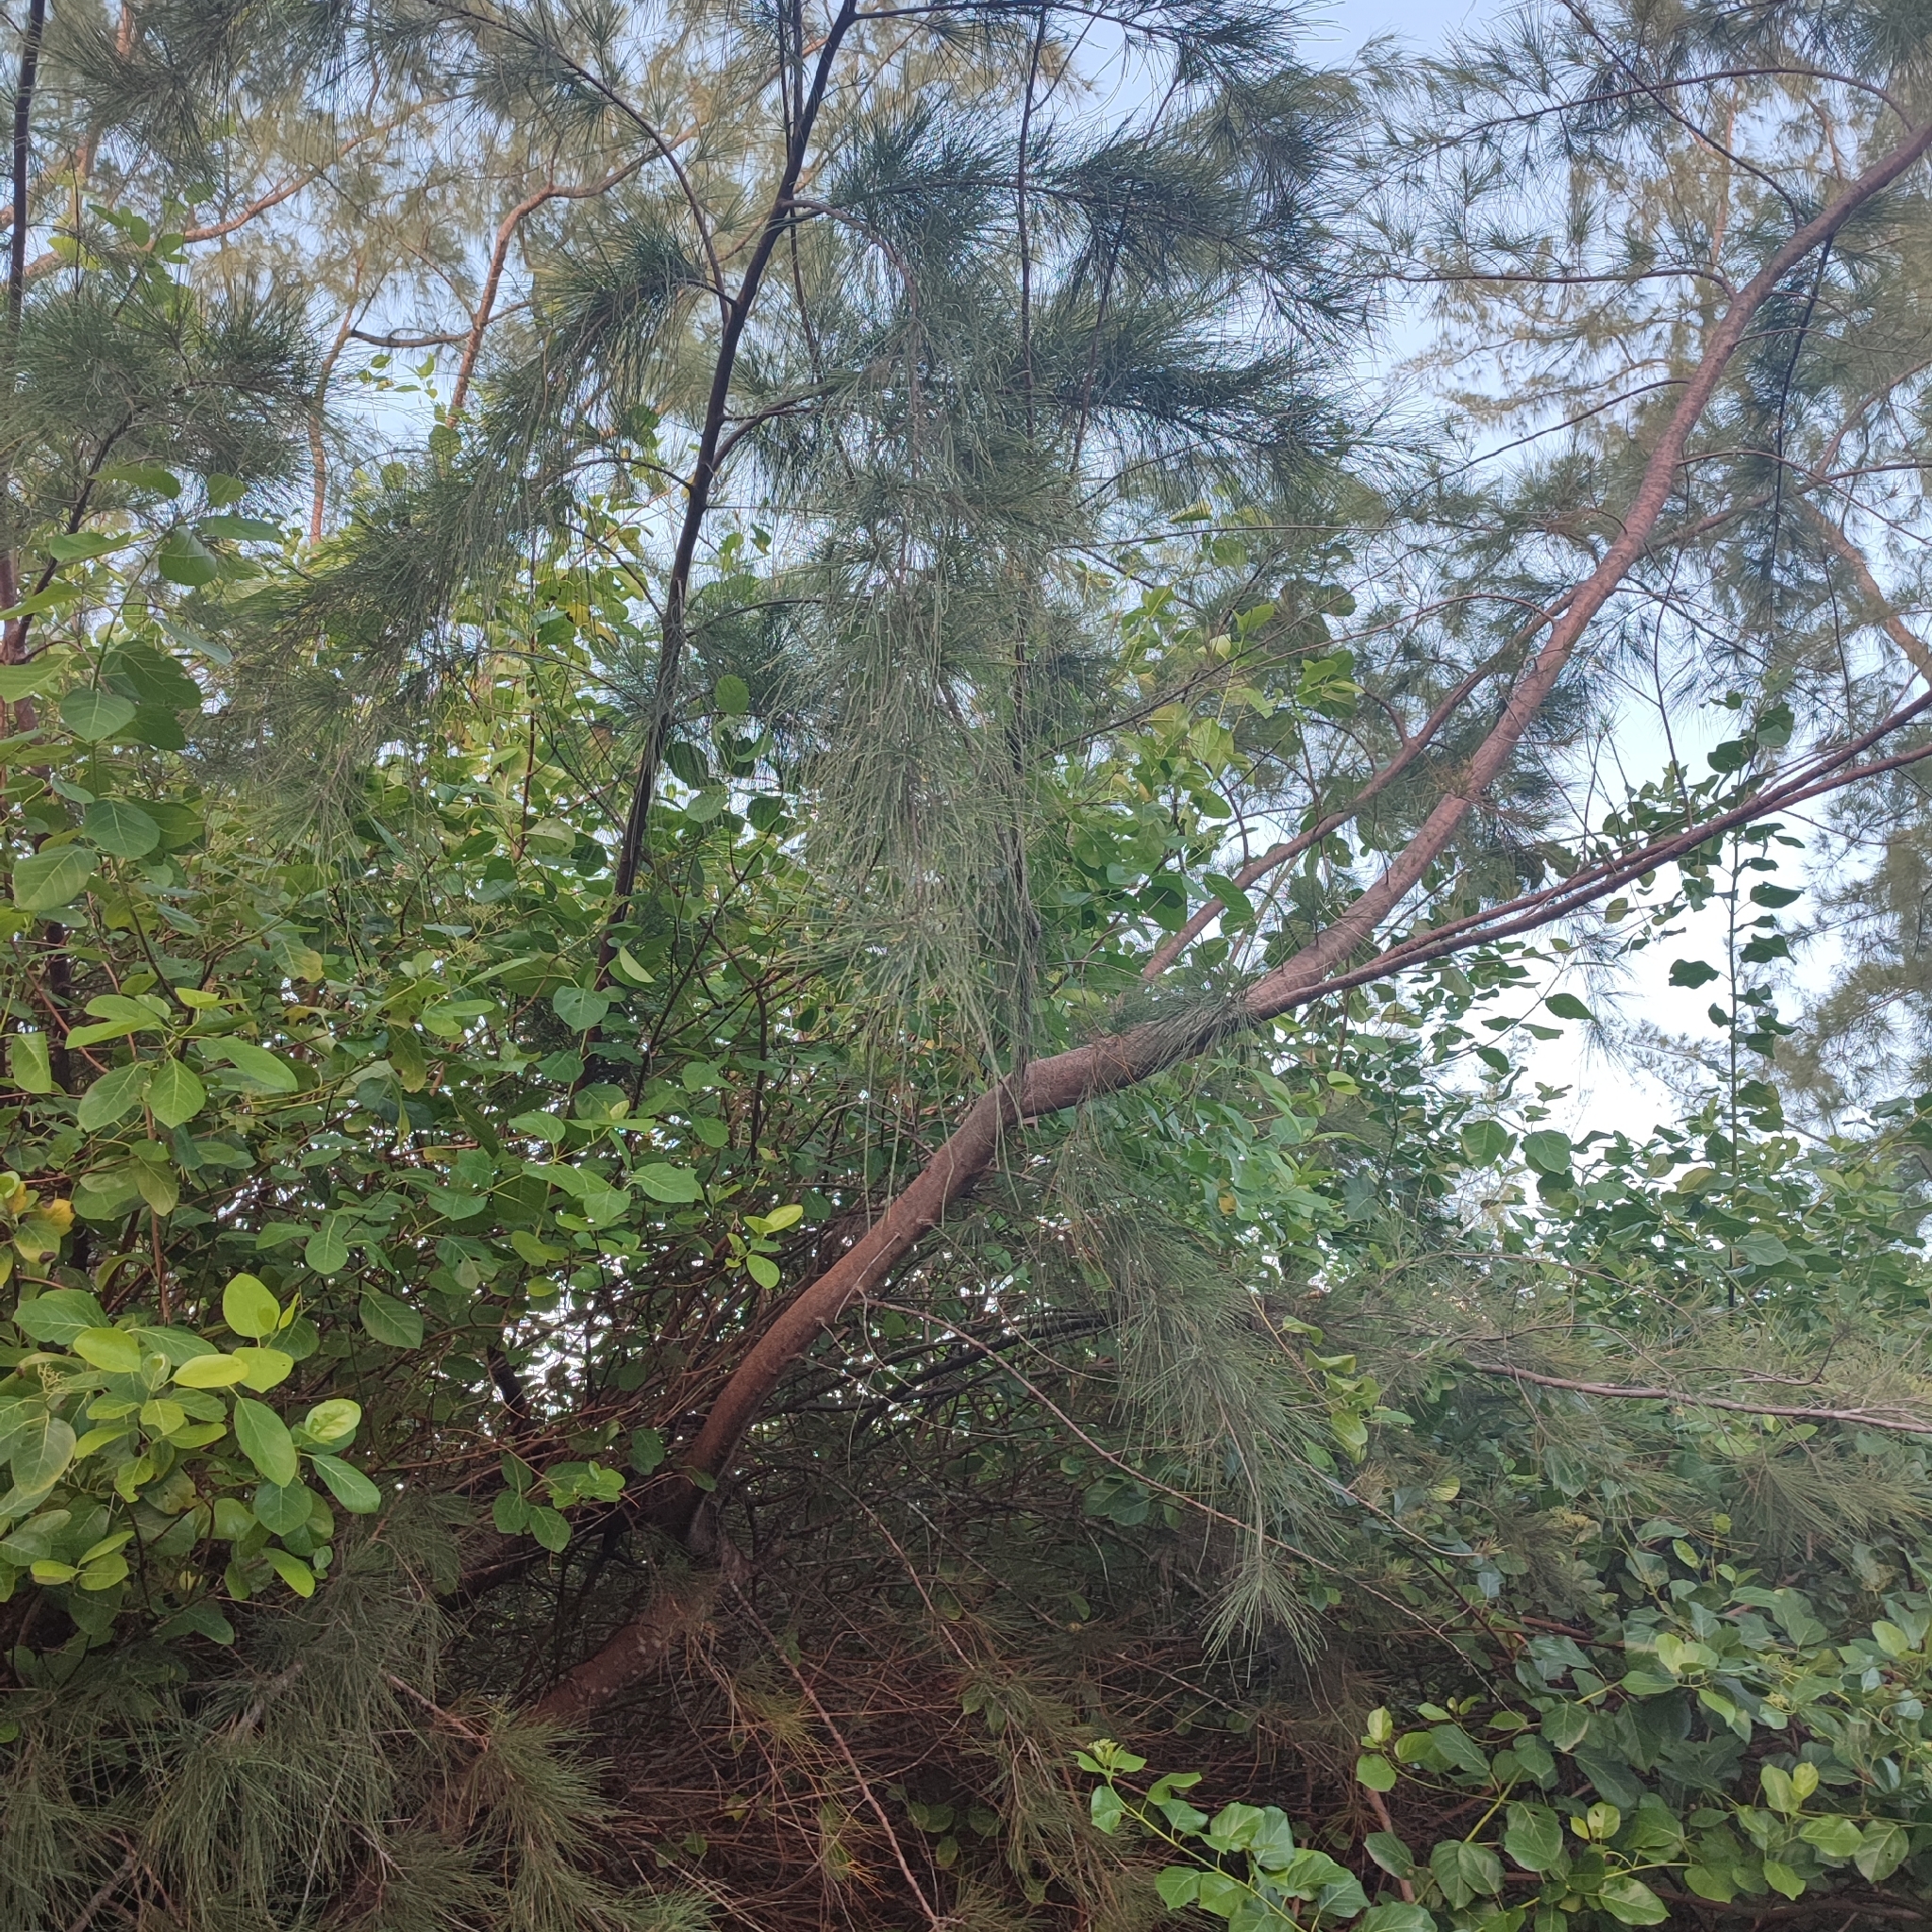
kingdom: Plantae
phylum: Tracheophyta
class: Magnoliopsida
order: Fagales
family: Casuarinaceae
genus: Casuarina
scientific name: Casuarina equisetifolia
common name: Beach sheoak
